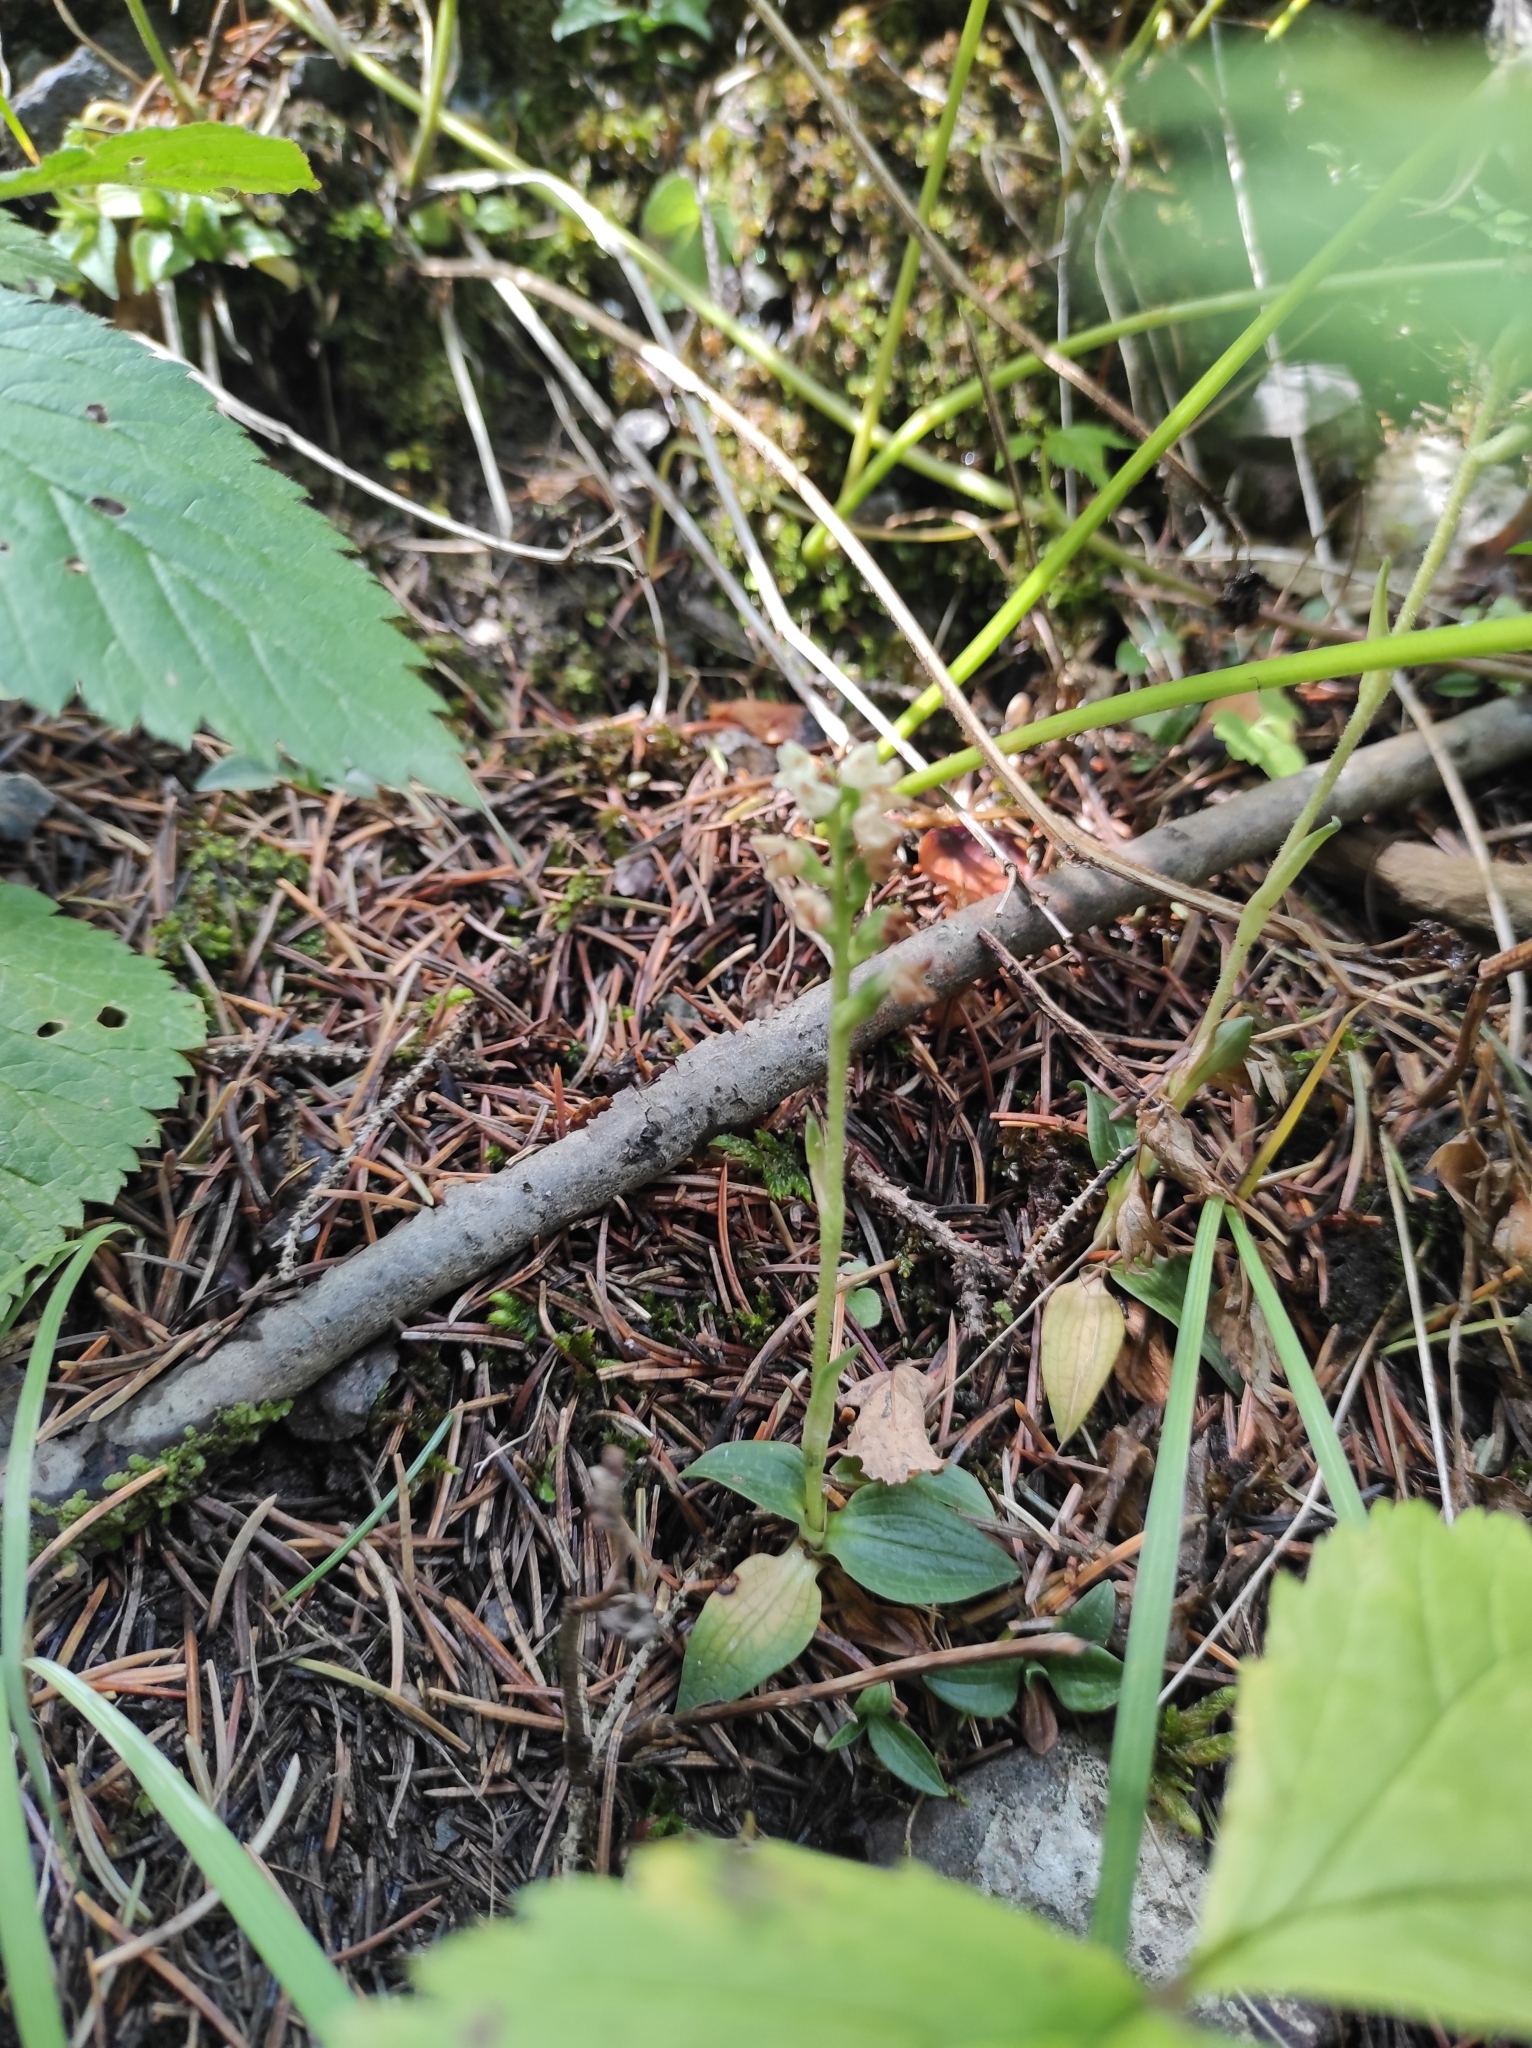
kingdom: Plantae
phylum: Tracheophyta
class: Liliopsida
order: Asparagales
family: Orchidaceae
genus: Goodyera
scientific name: Goodyera repens
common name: Creeping lady's-tresses
